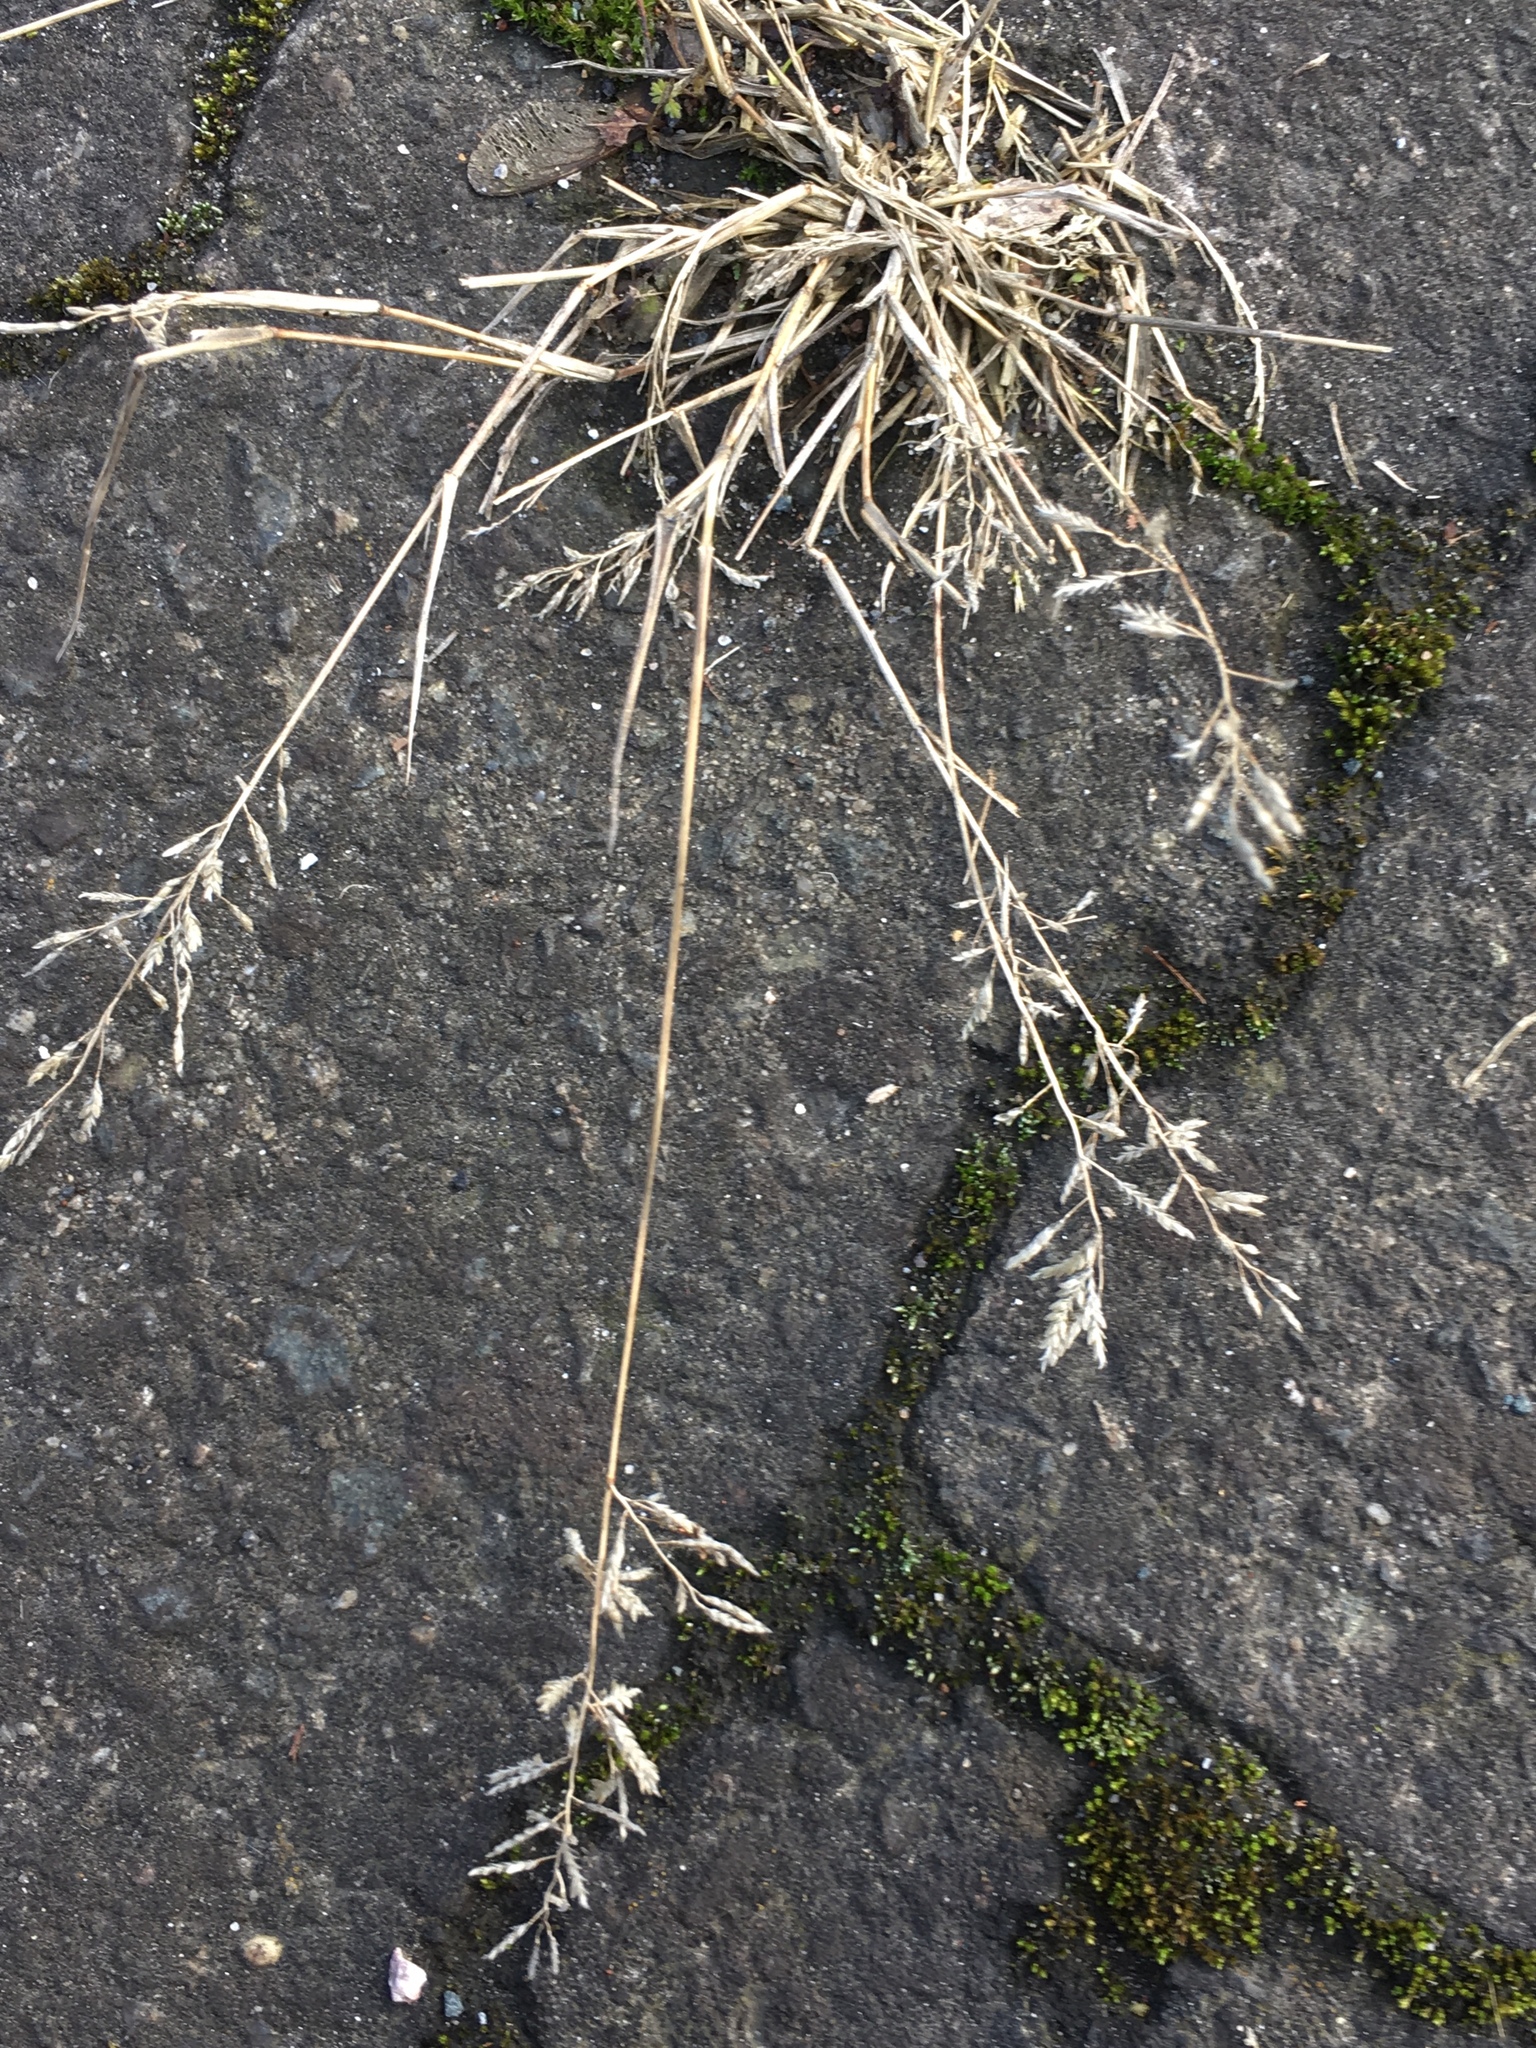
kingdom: Plantae
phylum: Tracheophyta
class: Liliopsida
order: Poales
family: Poaceae
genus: Eragrostis
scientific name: Eragrostis minor
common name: Small love-grass
